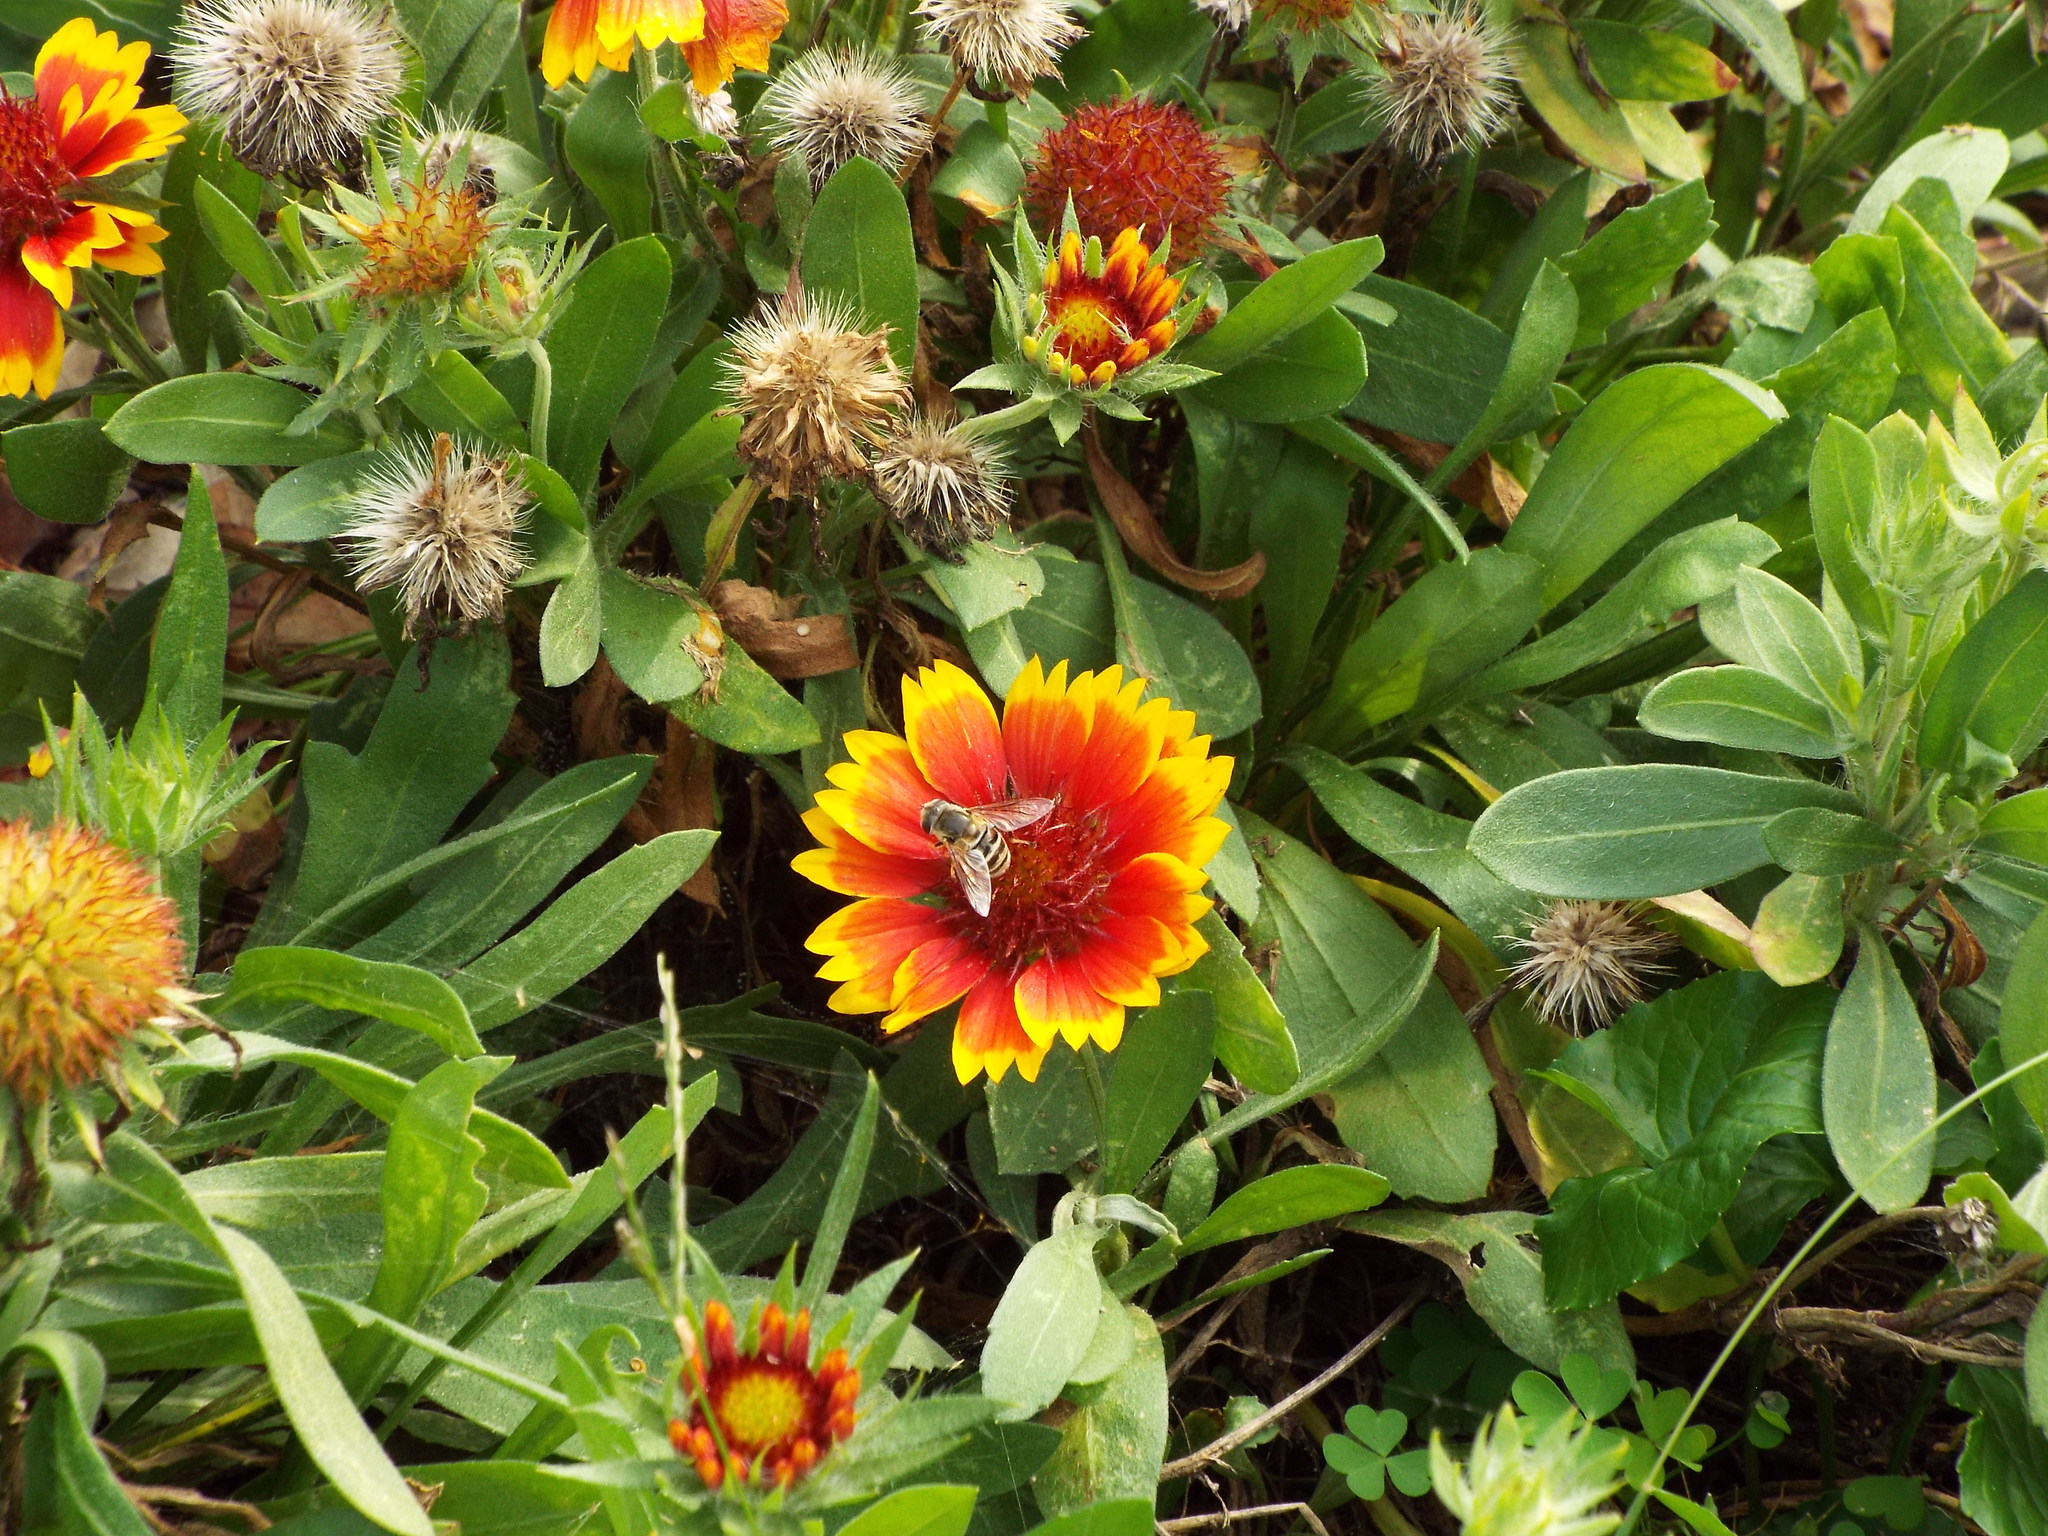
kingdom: Animalia
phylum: Arthropoda
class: Insecta
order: Diptera
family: Syrphidae
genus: Eristalis
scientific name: Eristalis stipator
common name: Yellow-shouldered drone fly
